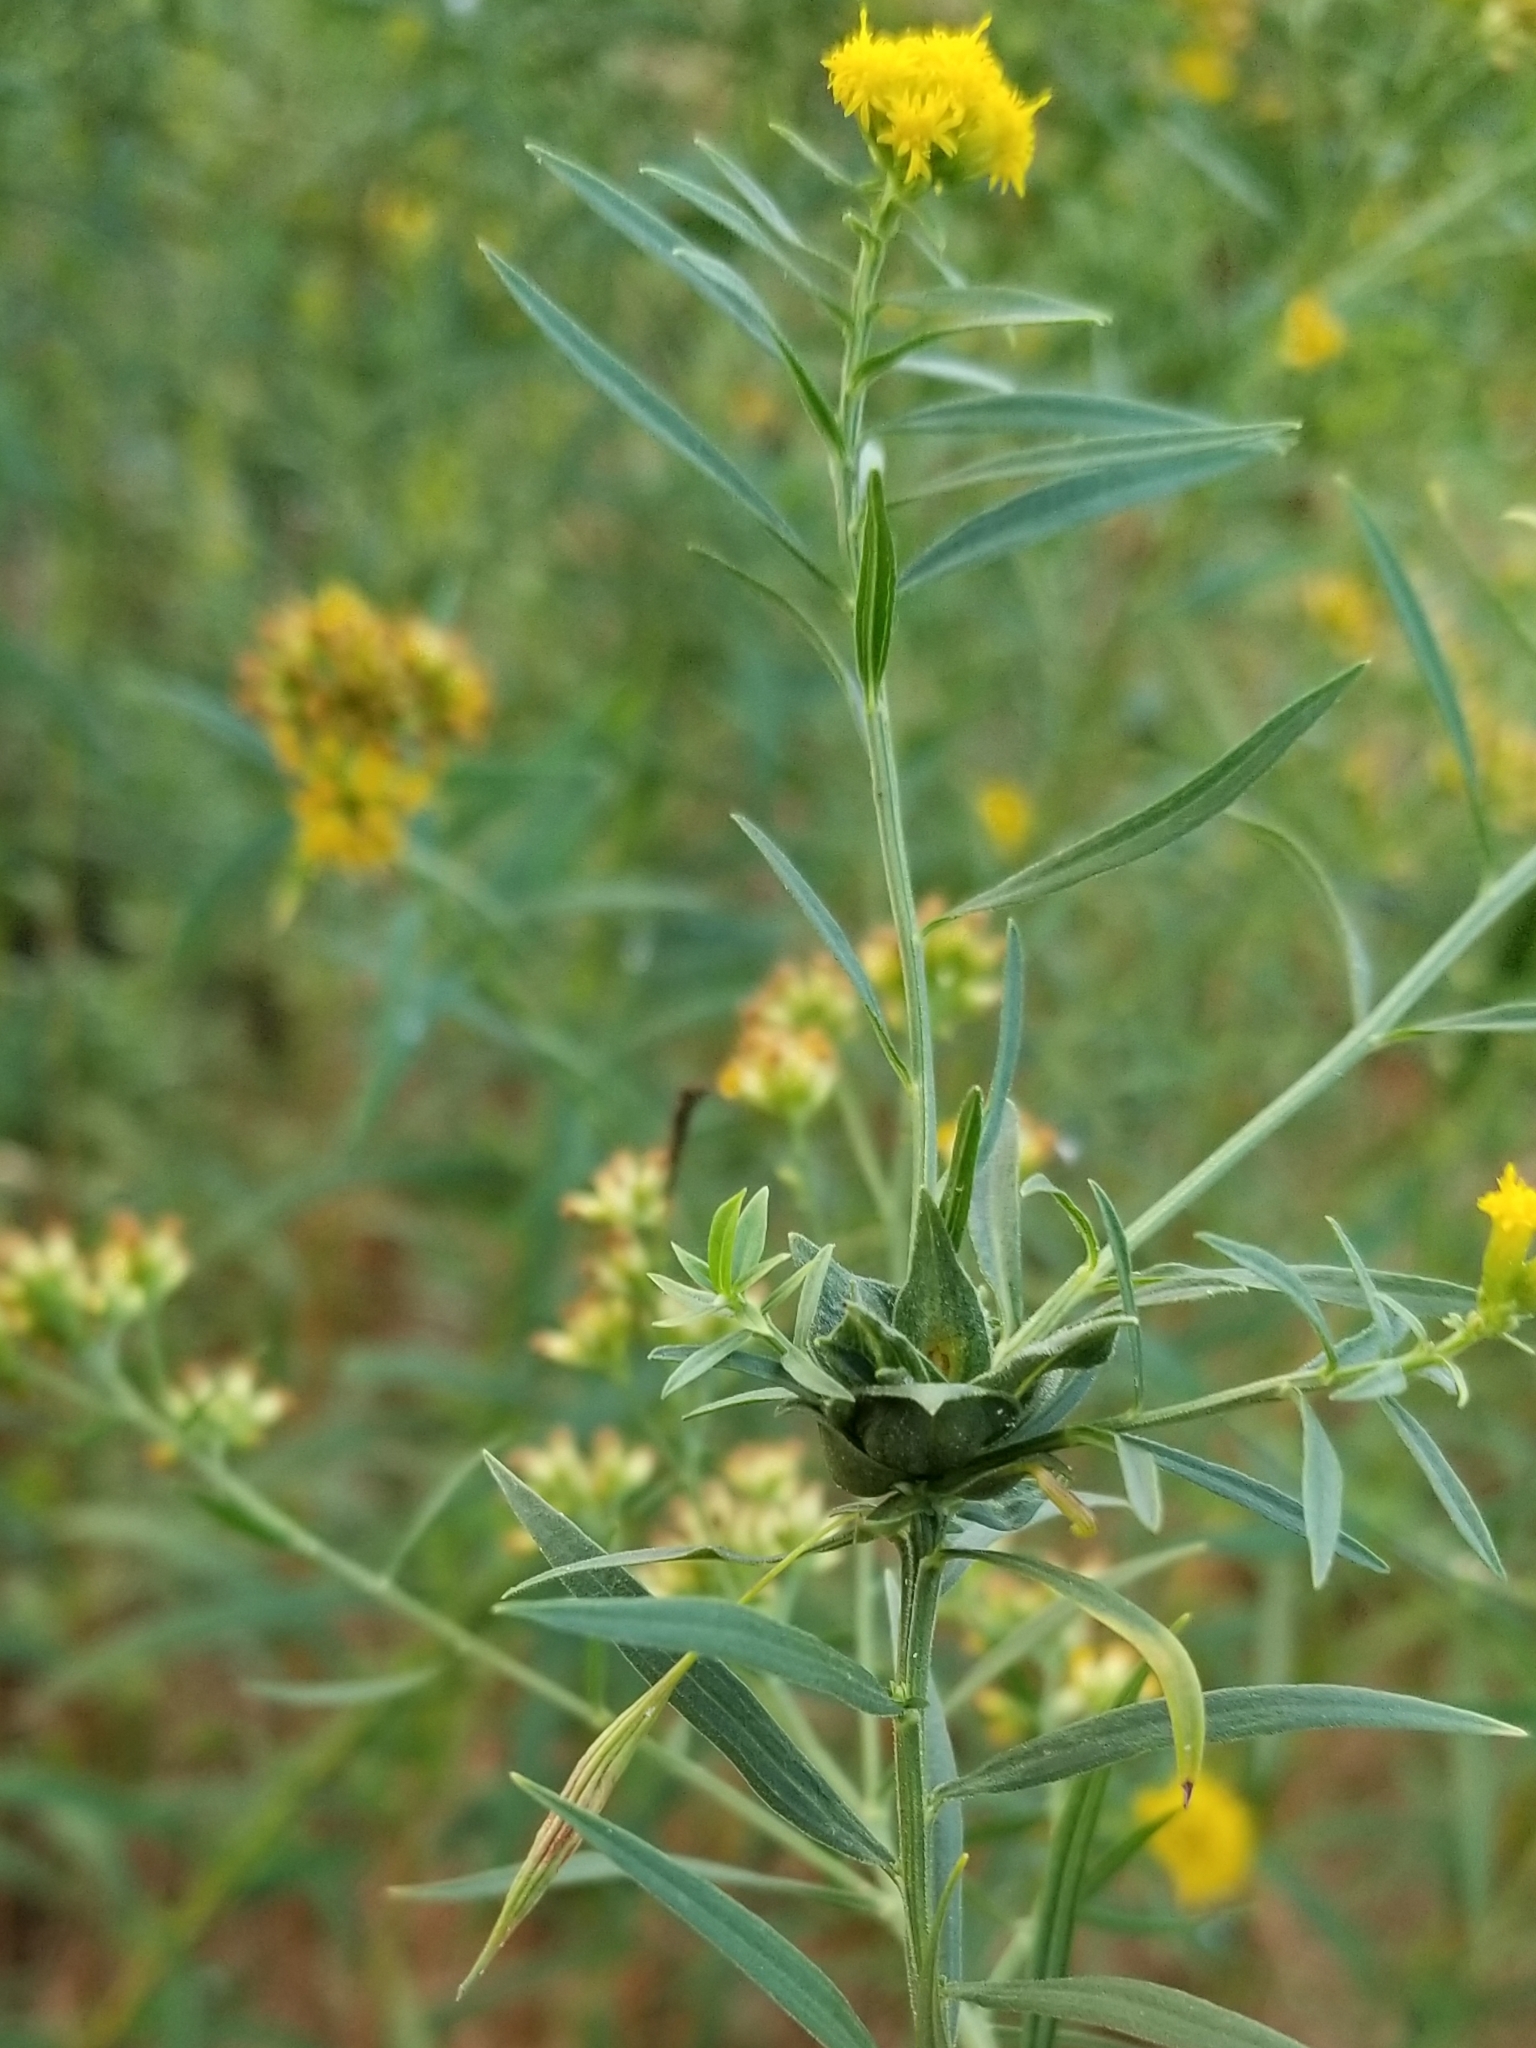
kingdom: Animalia
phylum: Arthropoda
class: Insecta
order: Diptera
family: Cecidomyiidae
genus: Asphondylia
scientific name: Asphondylia pseudorosa
